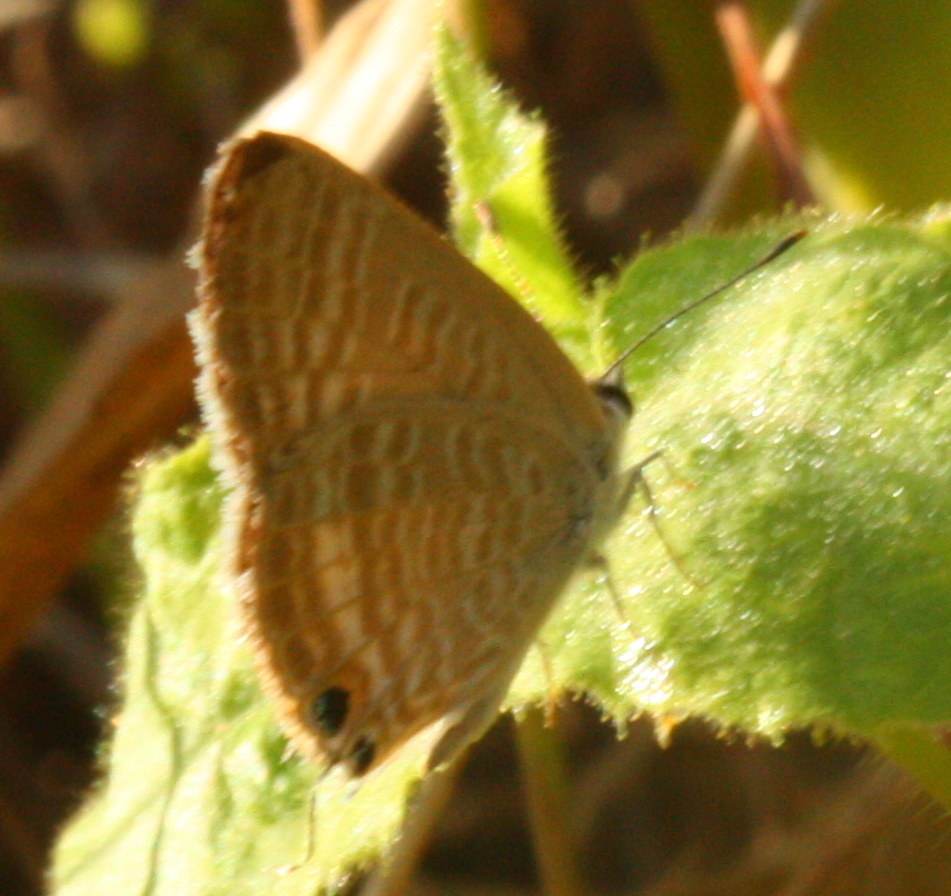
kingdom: Animalia
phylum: Arthropoda
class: Insecta
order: Lepidoptera
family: Lycaenidae
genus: Lampides
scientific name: Lampides boeticus
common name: Long-tailed blue
